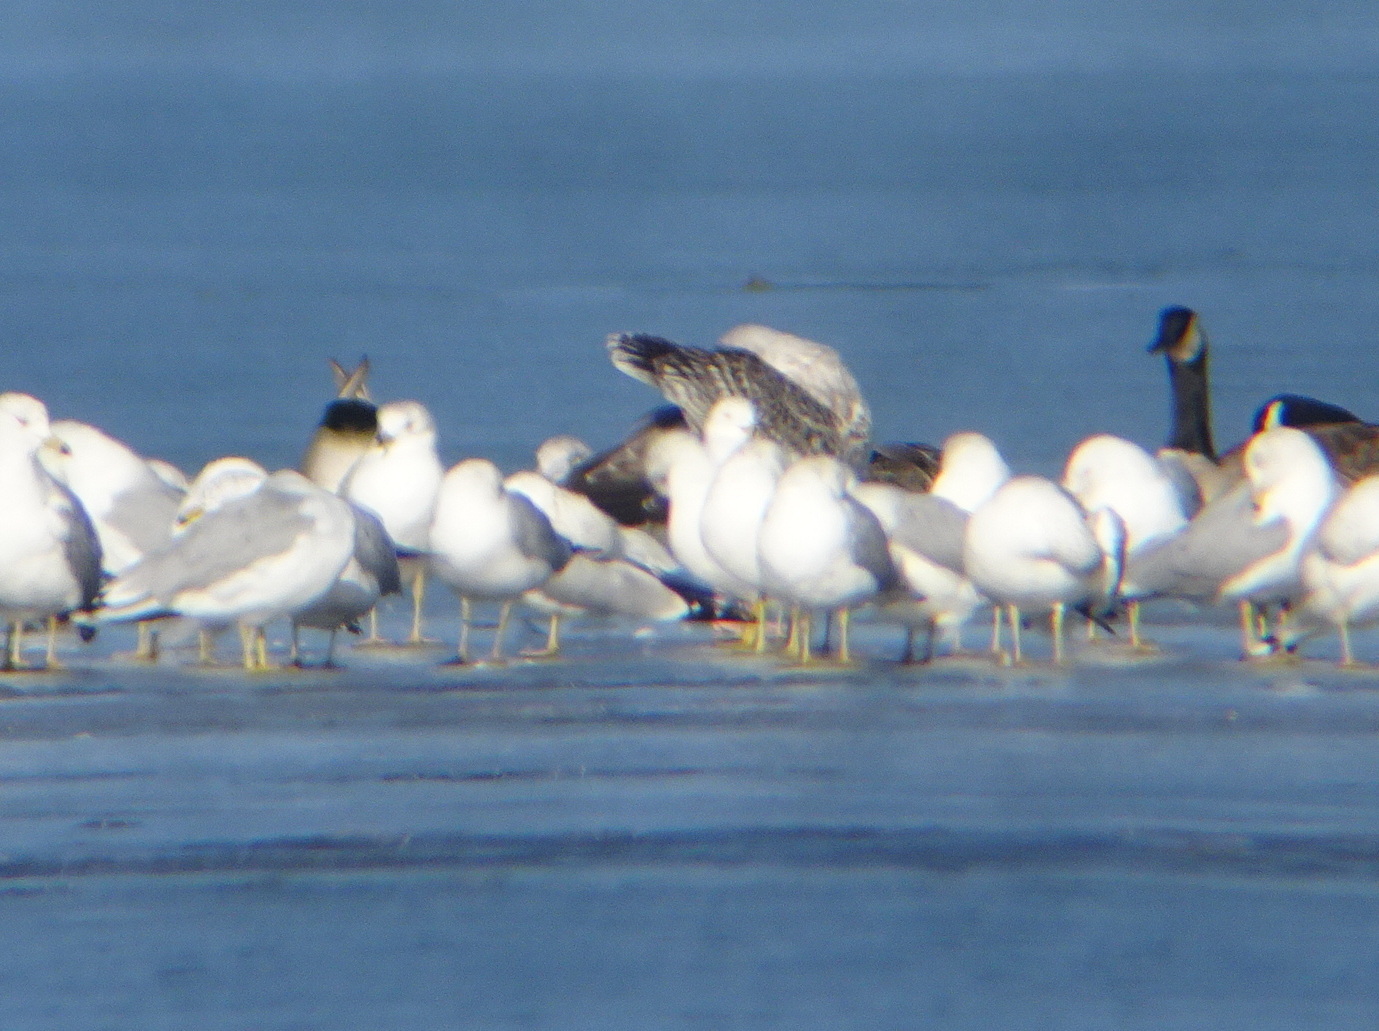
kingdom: Animalia
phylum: Chordata
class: Aves
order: Charadriiformes
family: Laridae
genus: Larus
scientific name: Larus marinus
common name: Great black-backed gull
